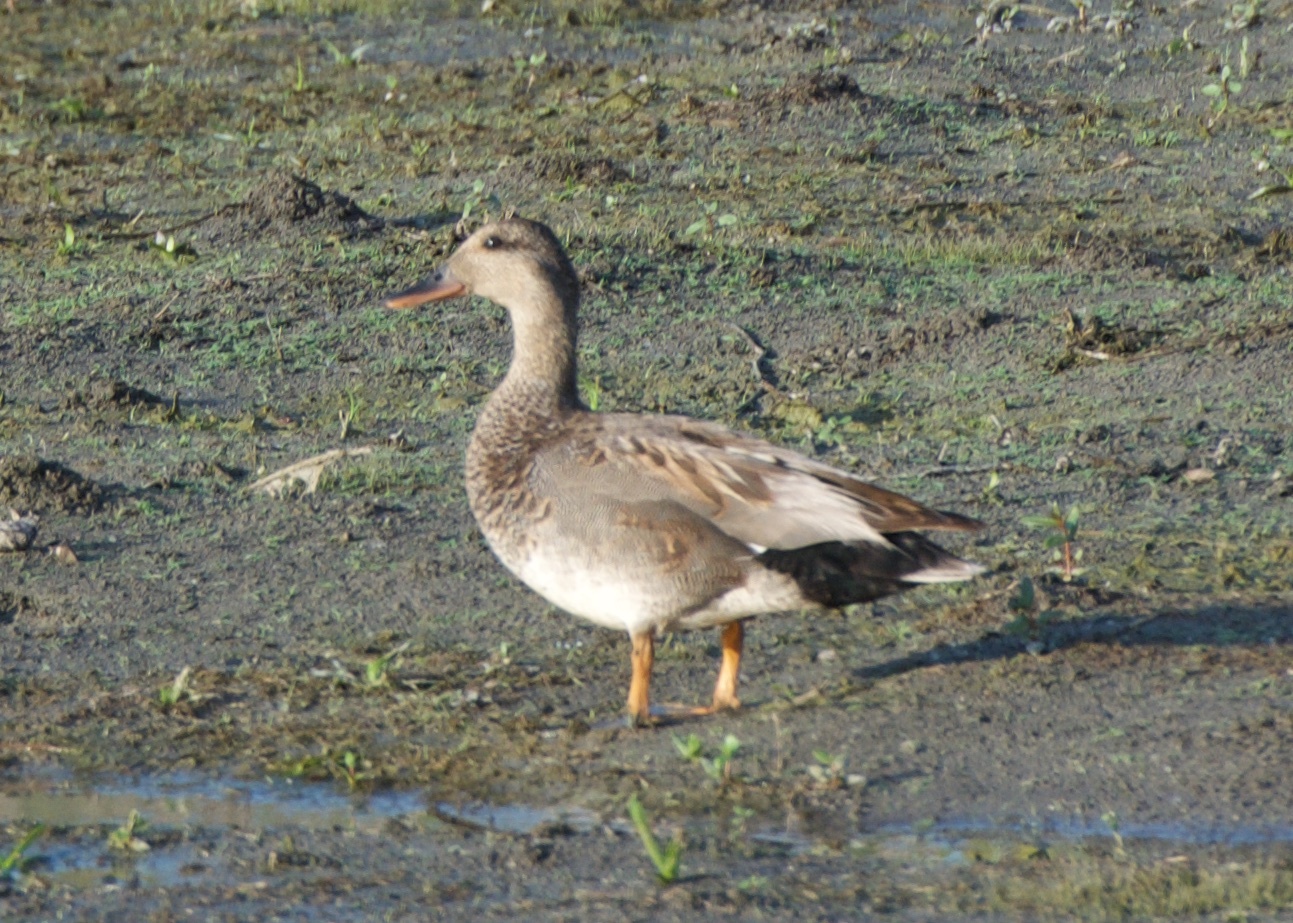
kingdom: Animalia
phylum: Chordata
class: Aves
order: Anseriformes
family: Anatidae
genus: Mareca
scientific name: Mareca strepera
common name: Gadwall
